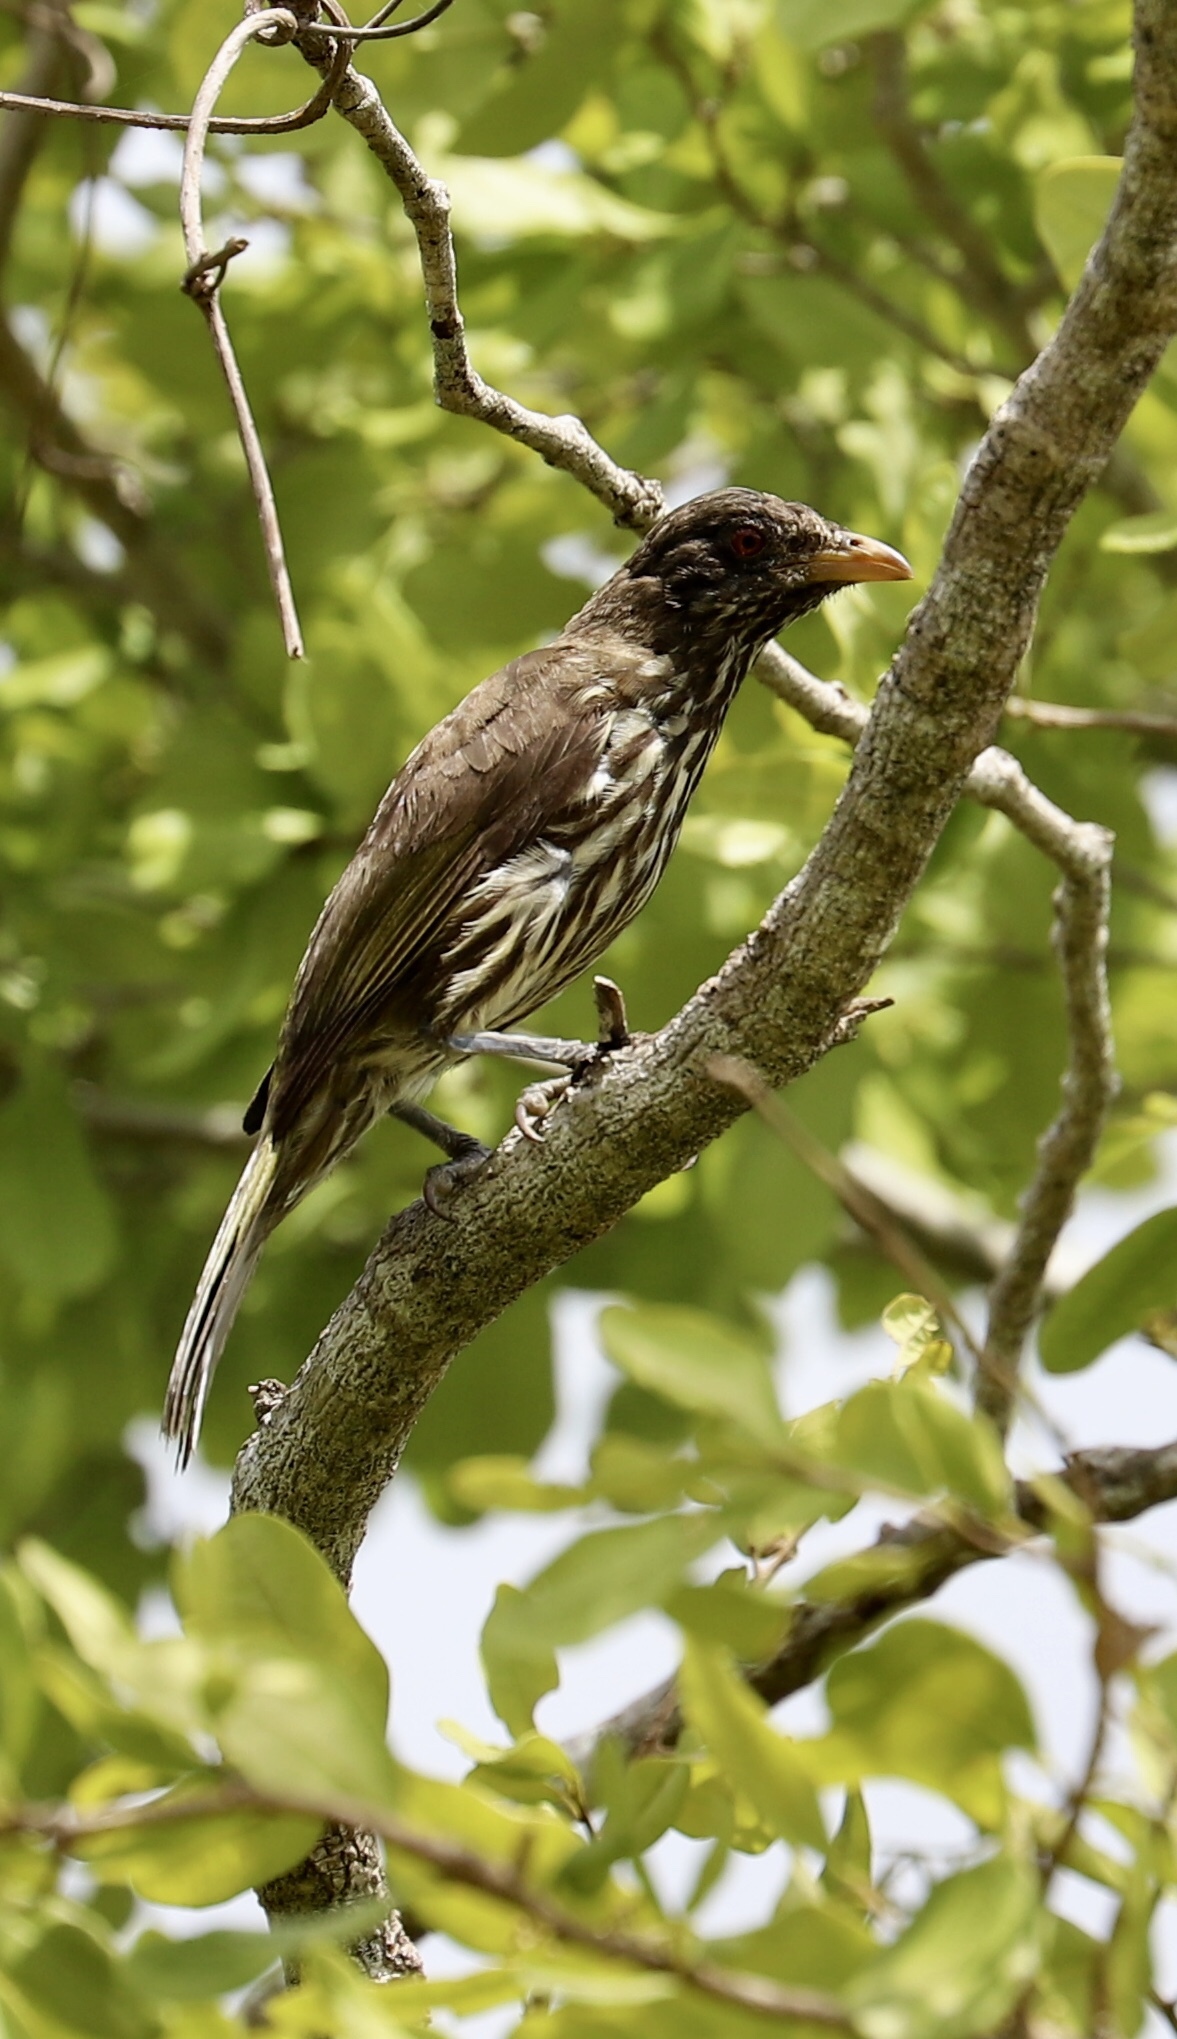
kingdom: Animalia
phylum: Chordata
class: Aves
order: Passeriformes
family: Dulidae
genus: Dulus
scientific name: Dulus dominicus
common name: Palmchat
